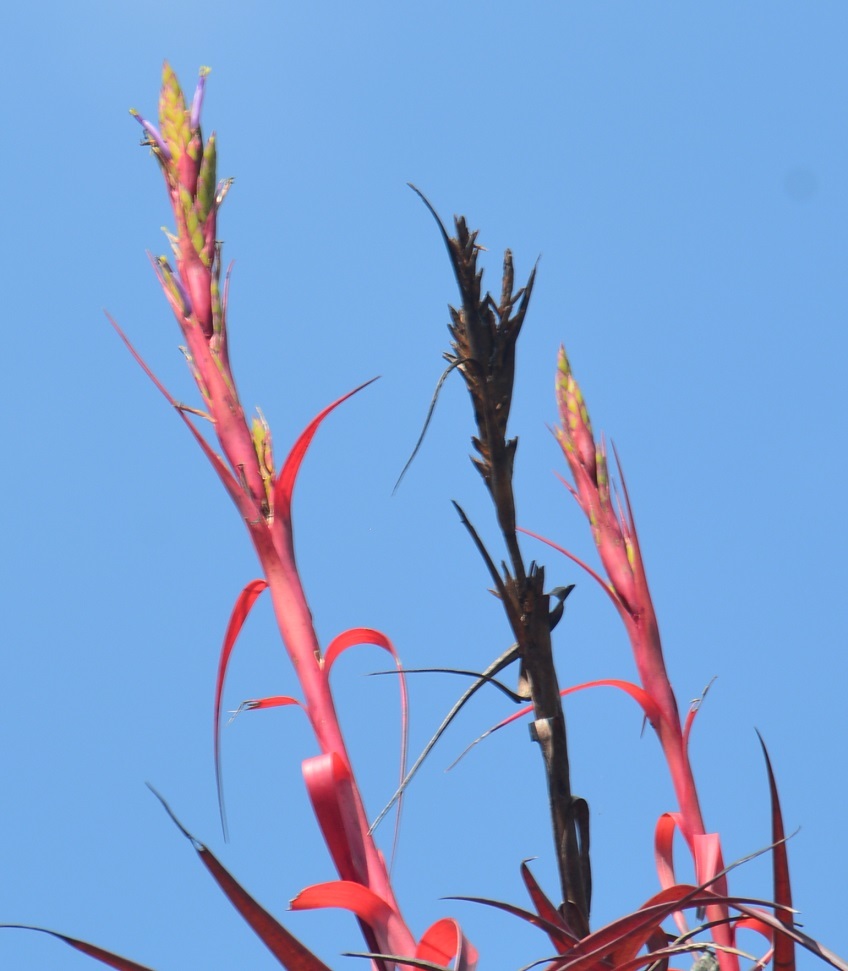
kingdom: Plantae
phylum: Tracheophyta
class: Liliopsida
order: Poales
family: Bromeliaceae
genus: Tillandsia
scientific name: Tillandsia belloensis
